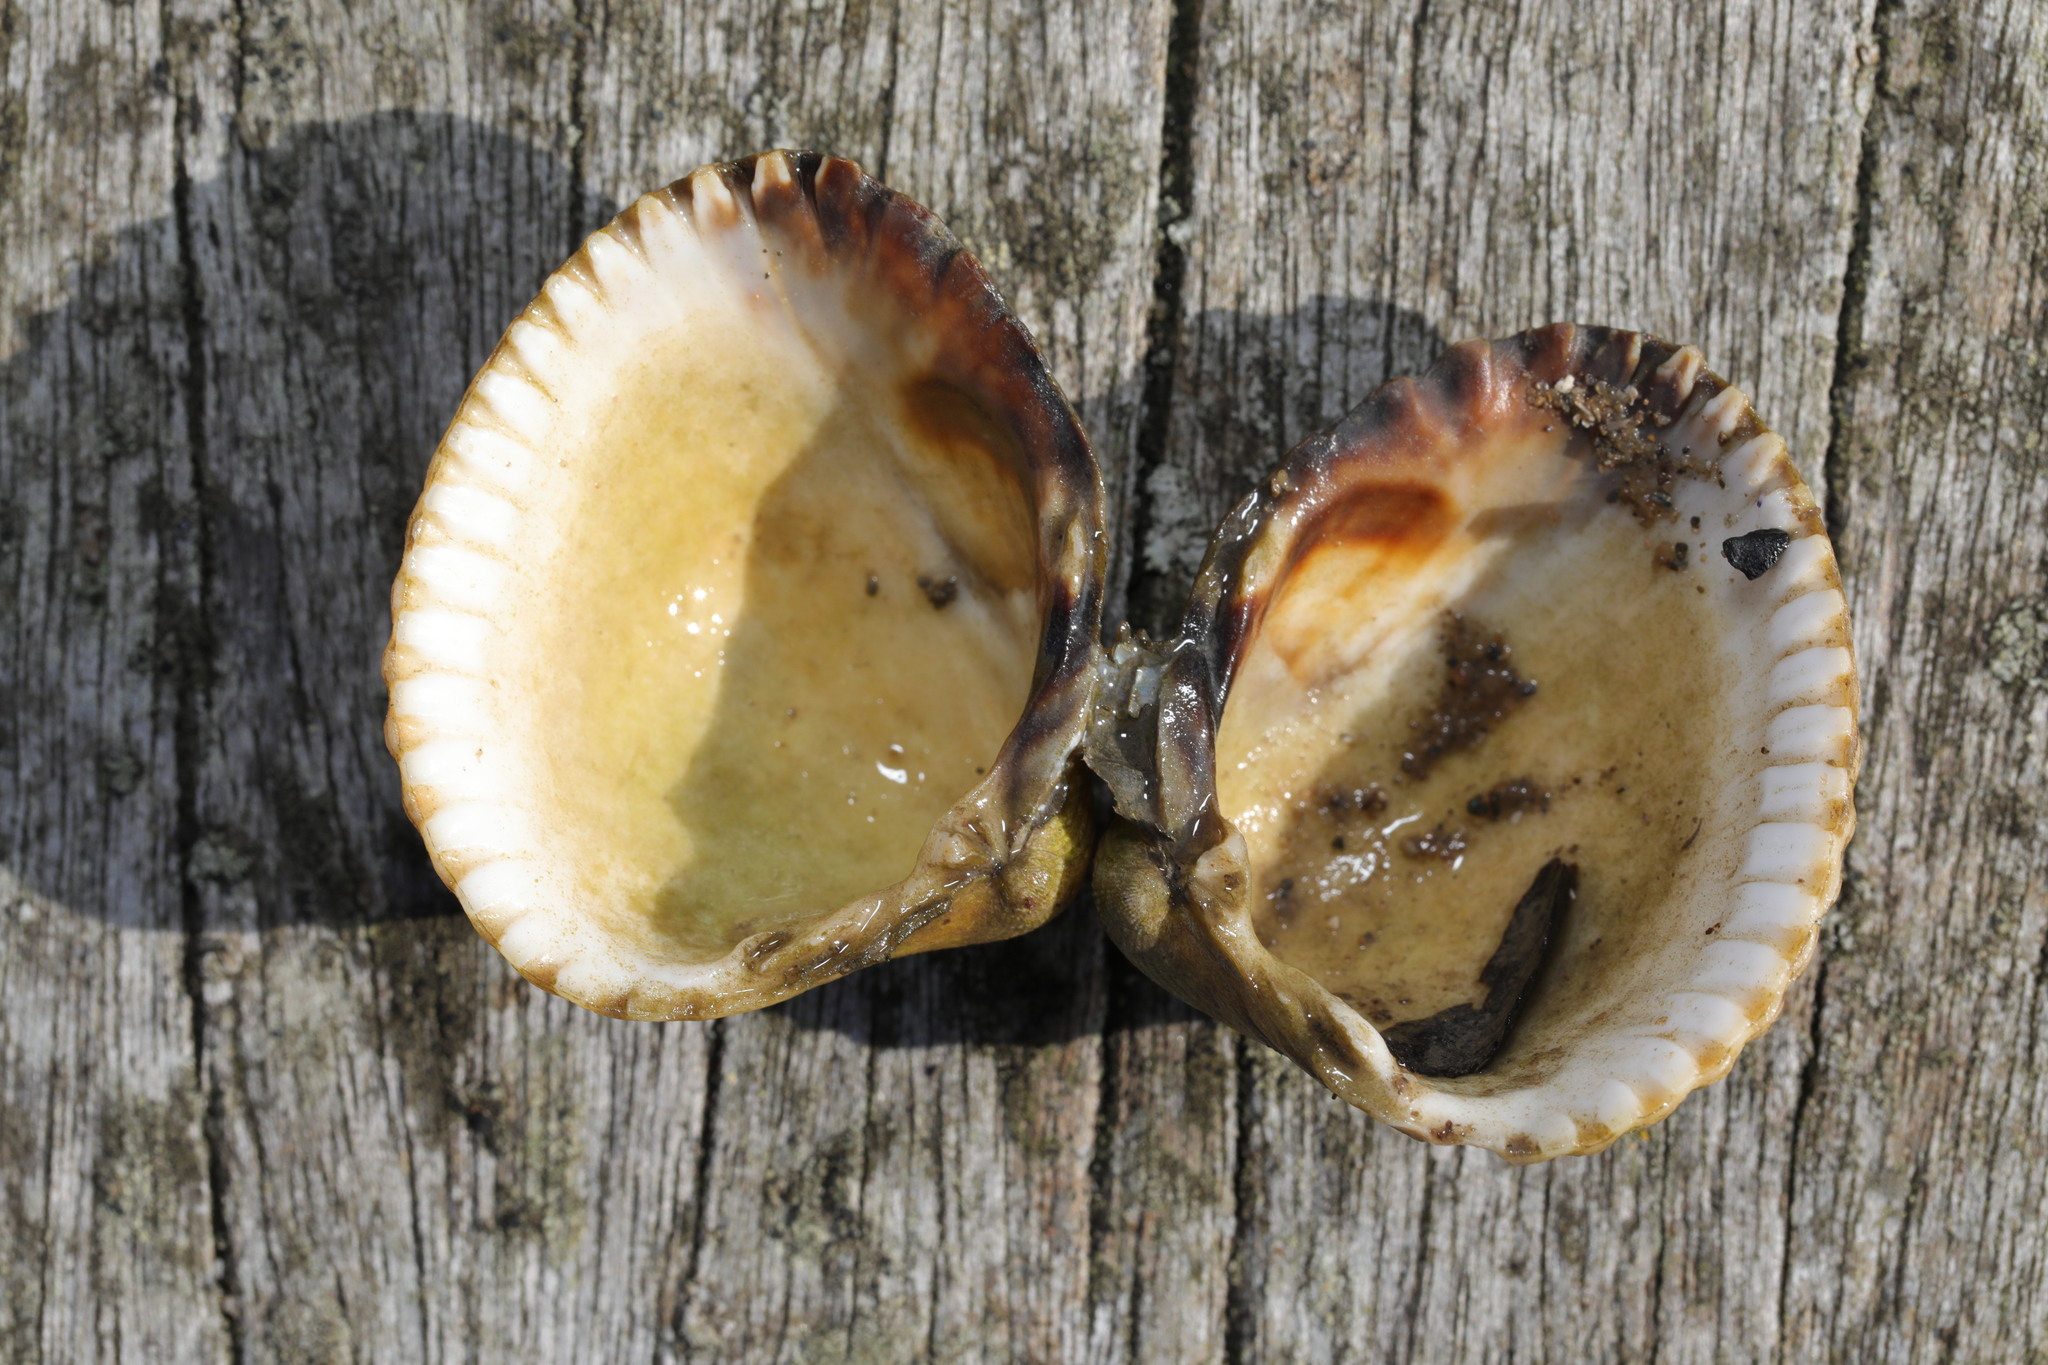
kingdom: Animalia
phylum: Mollusca
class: Bivalvia
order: Cardiida
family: Cardiidae
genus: Cerastoderma
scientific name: Cerastoderma edule
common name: Common cockle
